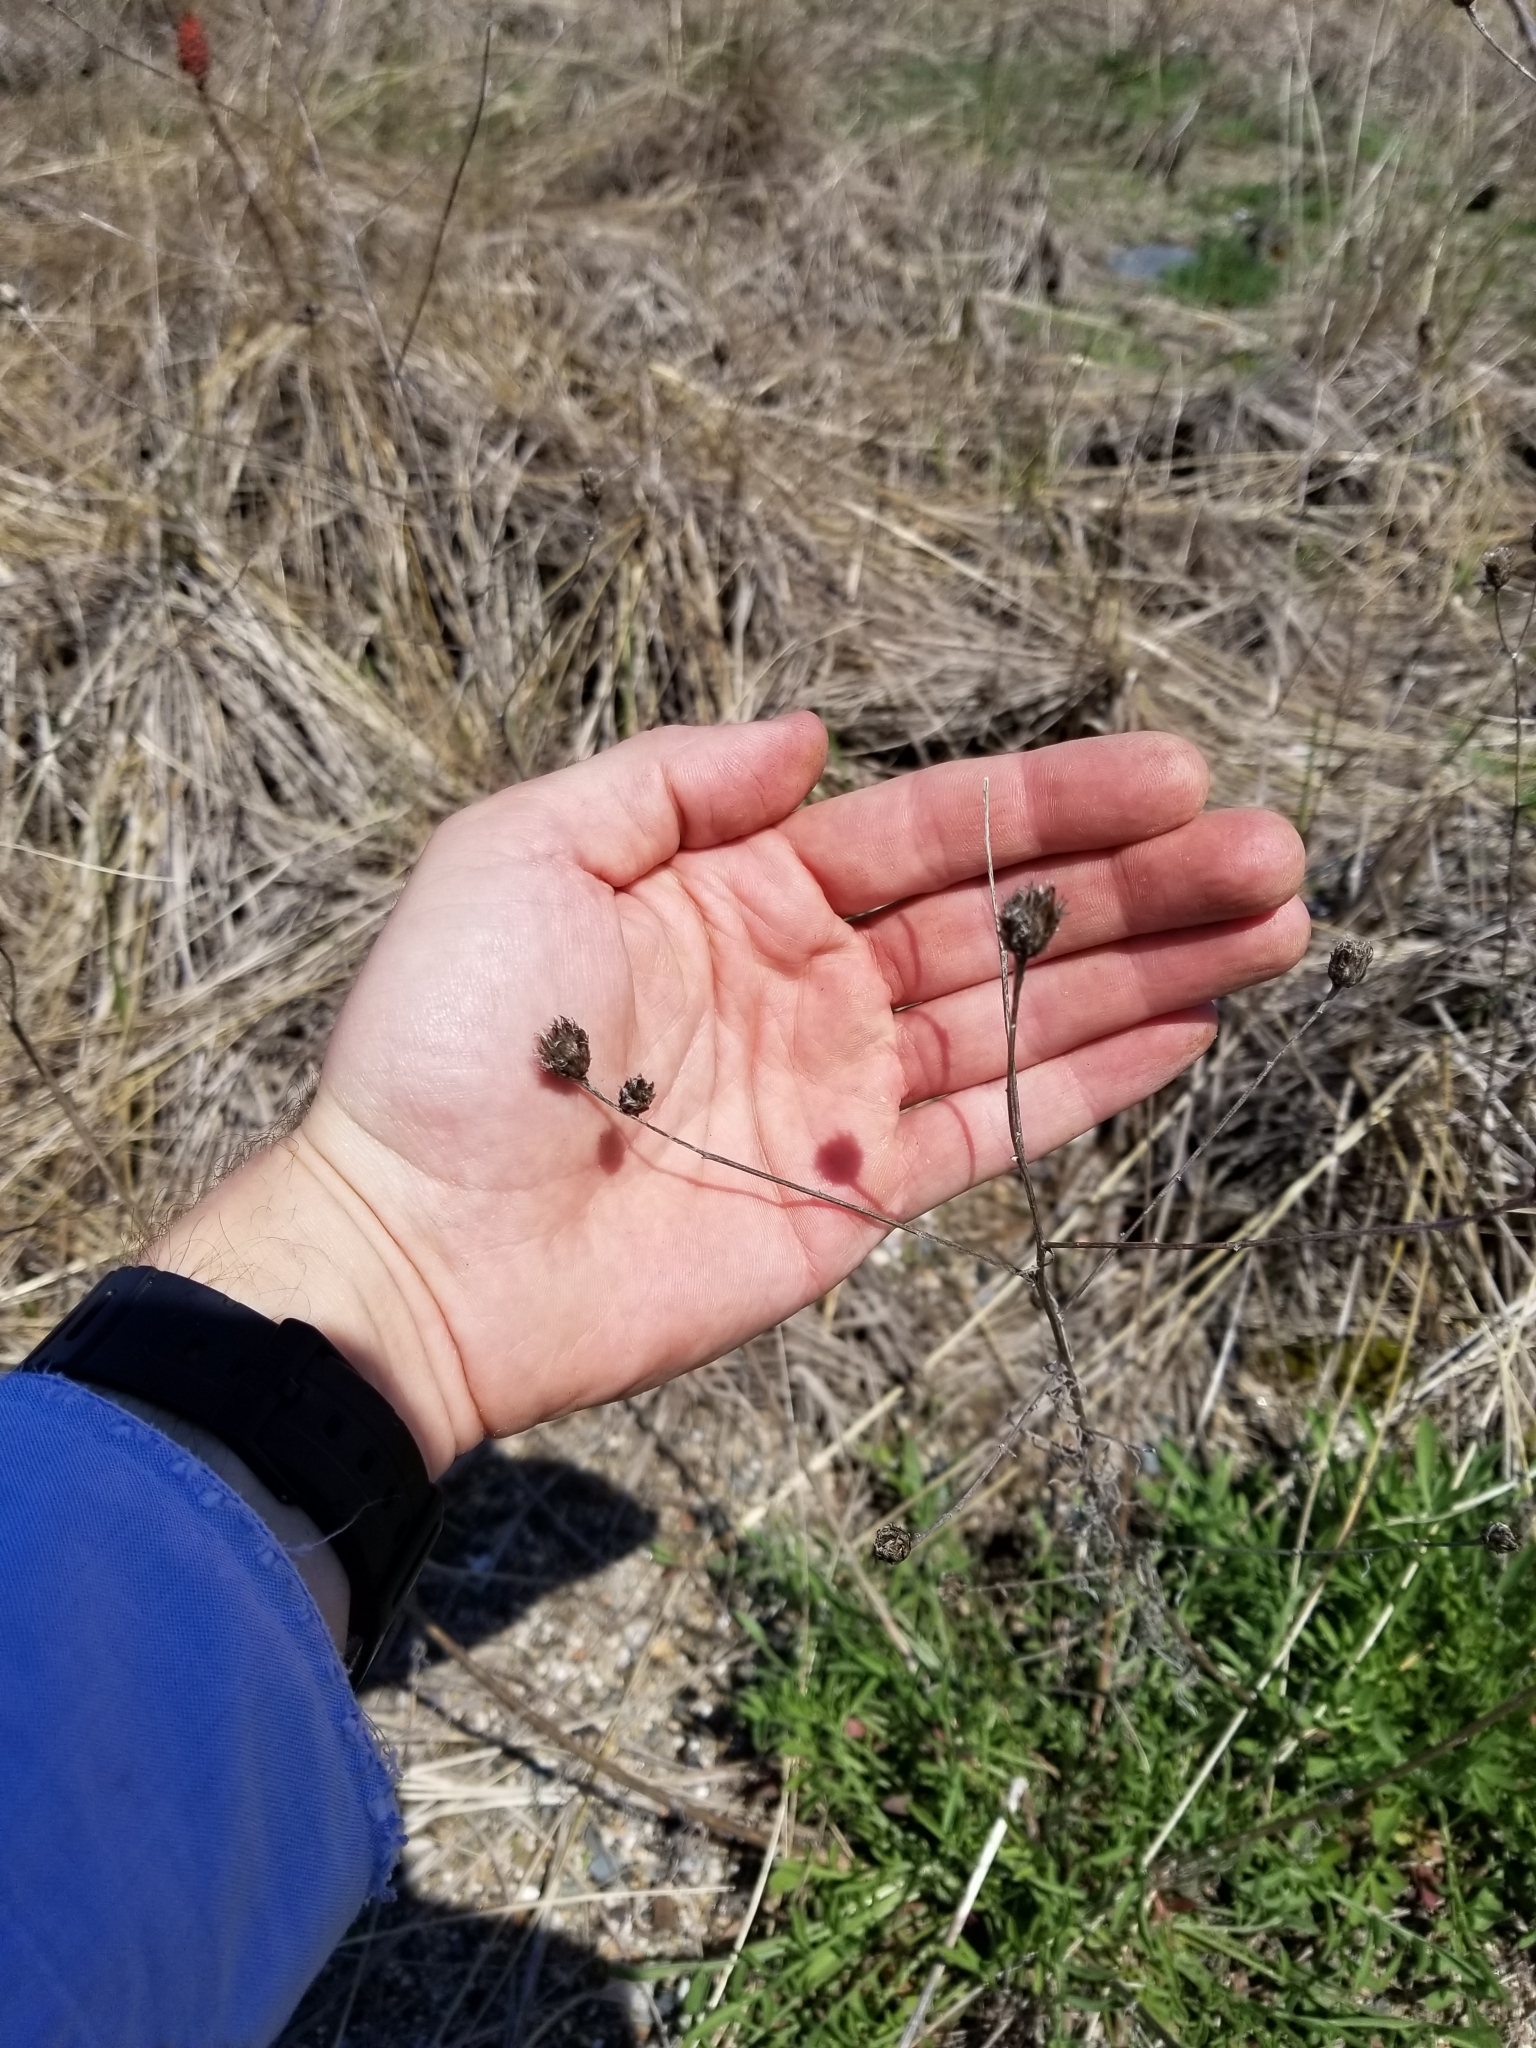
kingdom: Plantae
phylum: Tracheophyta
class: Magnoliopsida
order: Asterales
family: Asteraceae
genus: Centaurea
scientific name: Centaurea stoebe
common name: Spotted knapweed
